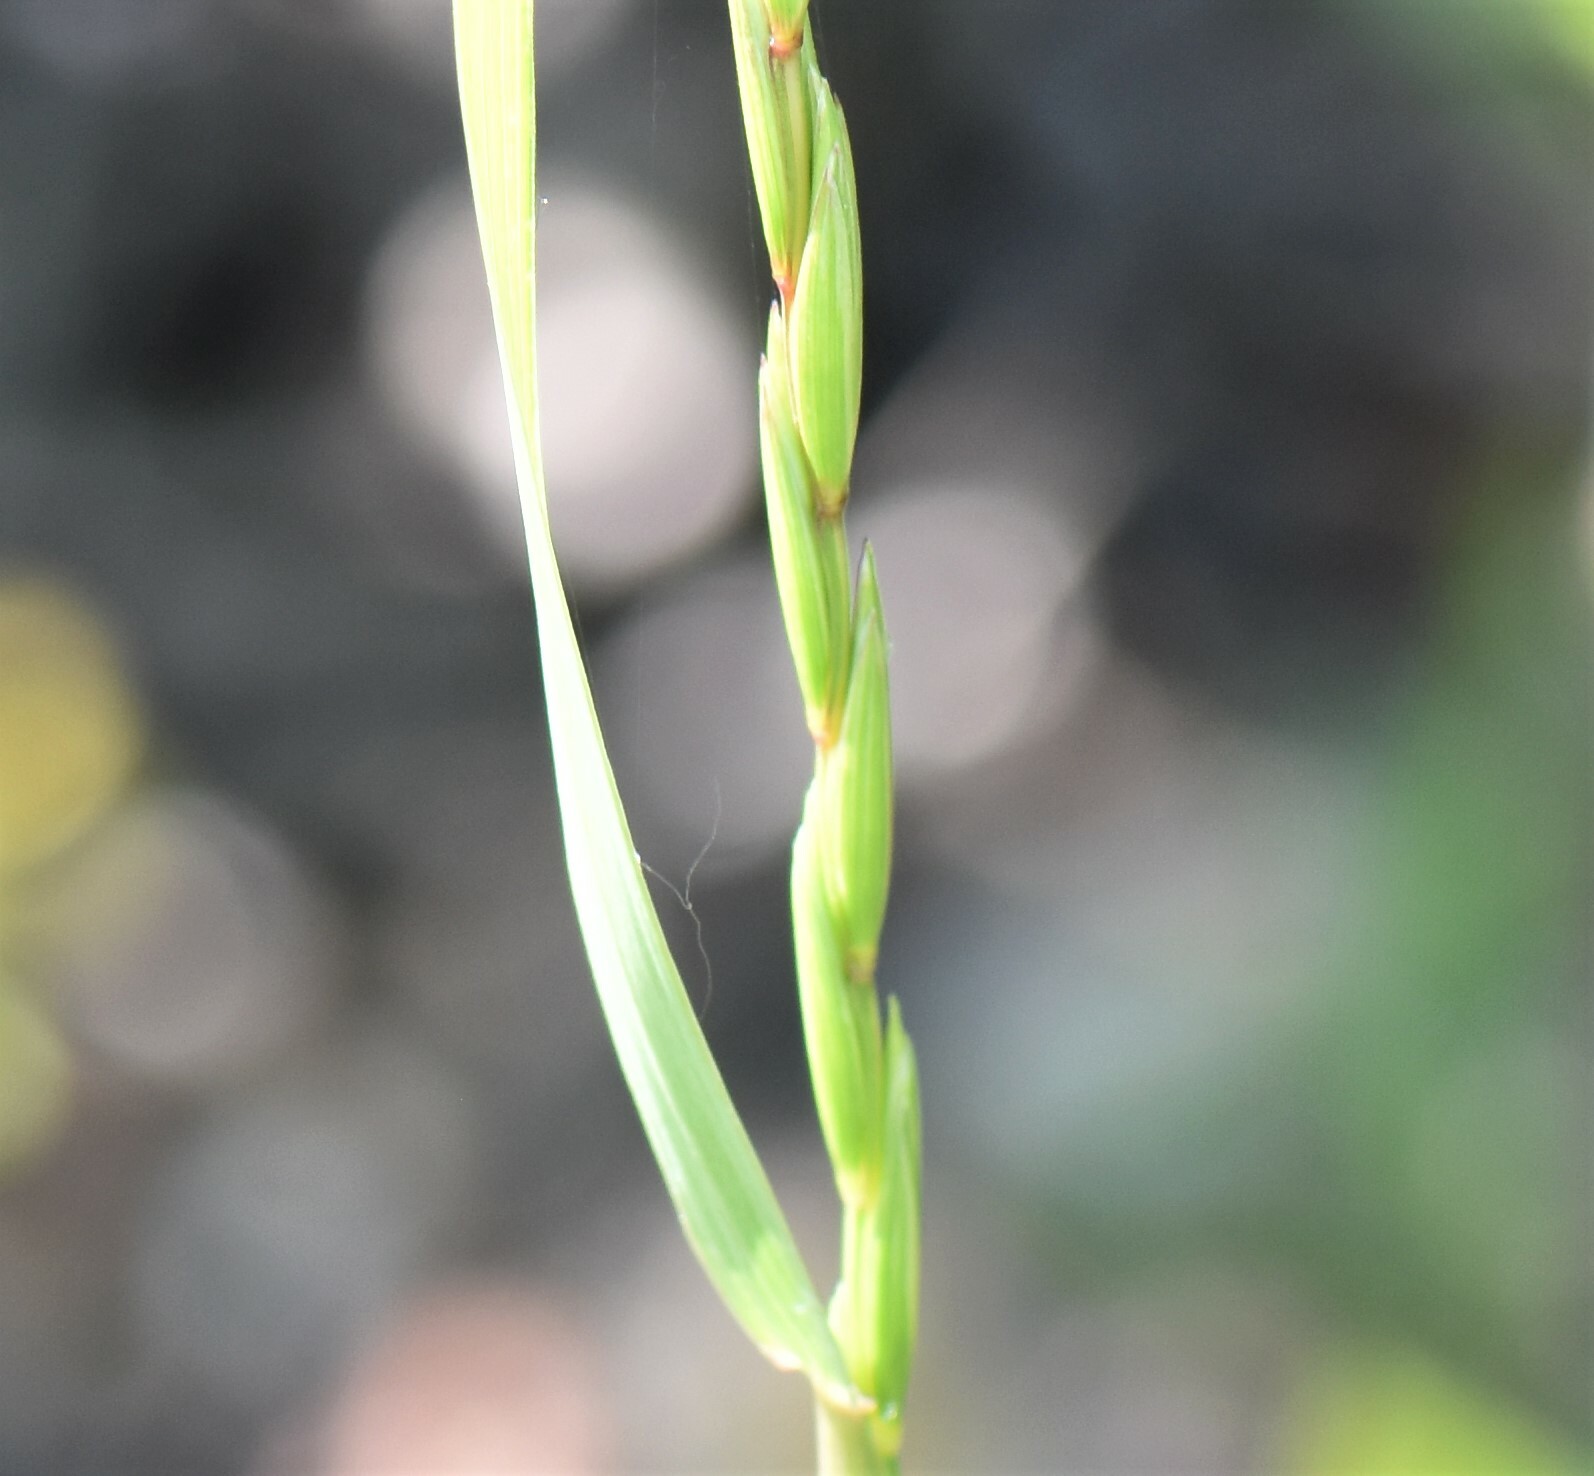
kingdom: Plantae
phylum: Tracheophyta
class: Liliopsida
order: Poales
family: Poaceae
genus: Elymus
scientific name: Elymus violaceus
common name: Arctic wheatgrass
